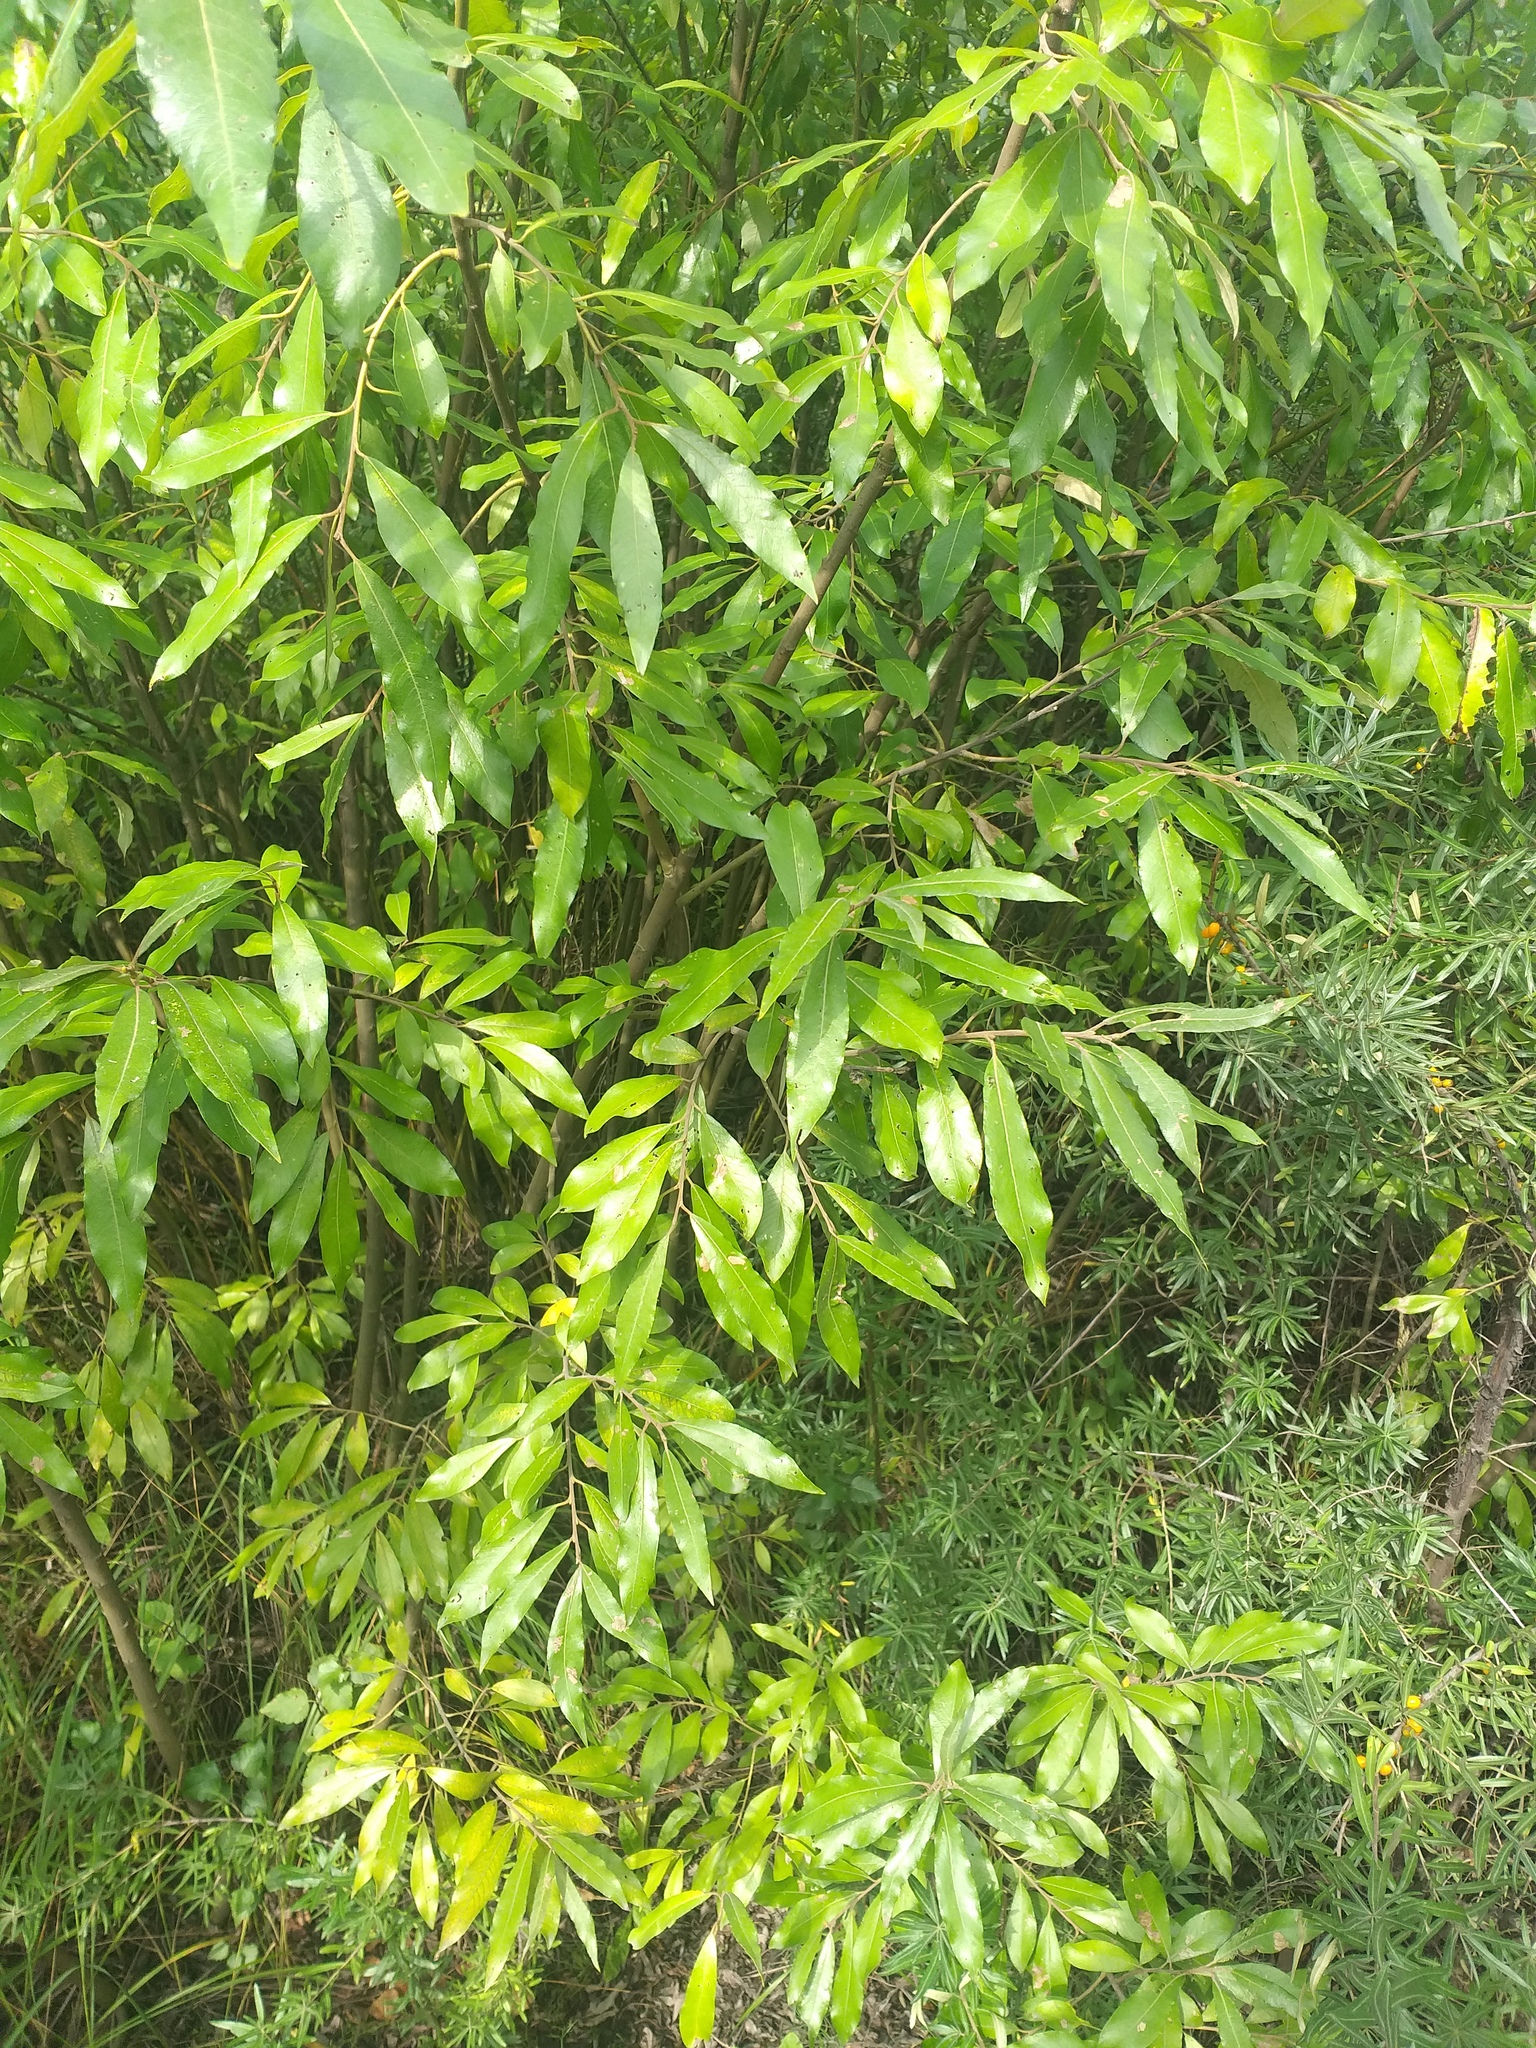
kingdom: Plantae
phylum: Tracheophyta
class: Magnoliopsida
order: Malpighiales
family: Salicaceae
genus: Salix
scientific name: Salix gmelinii
